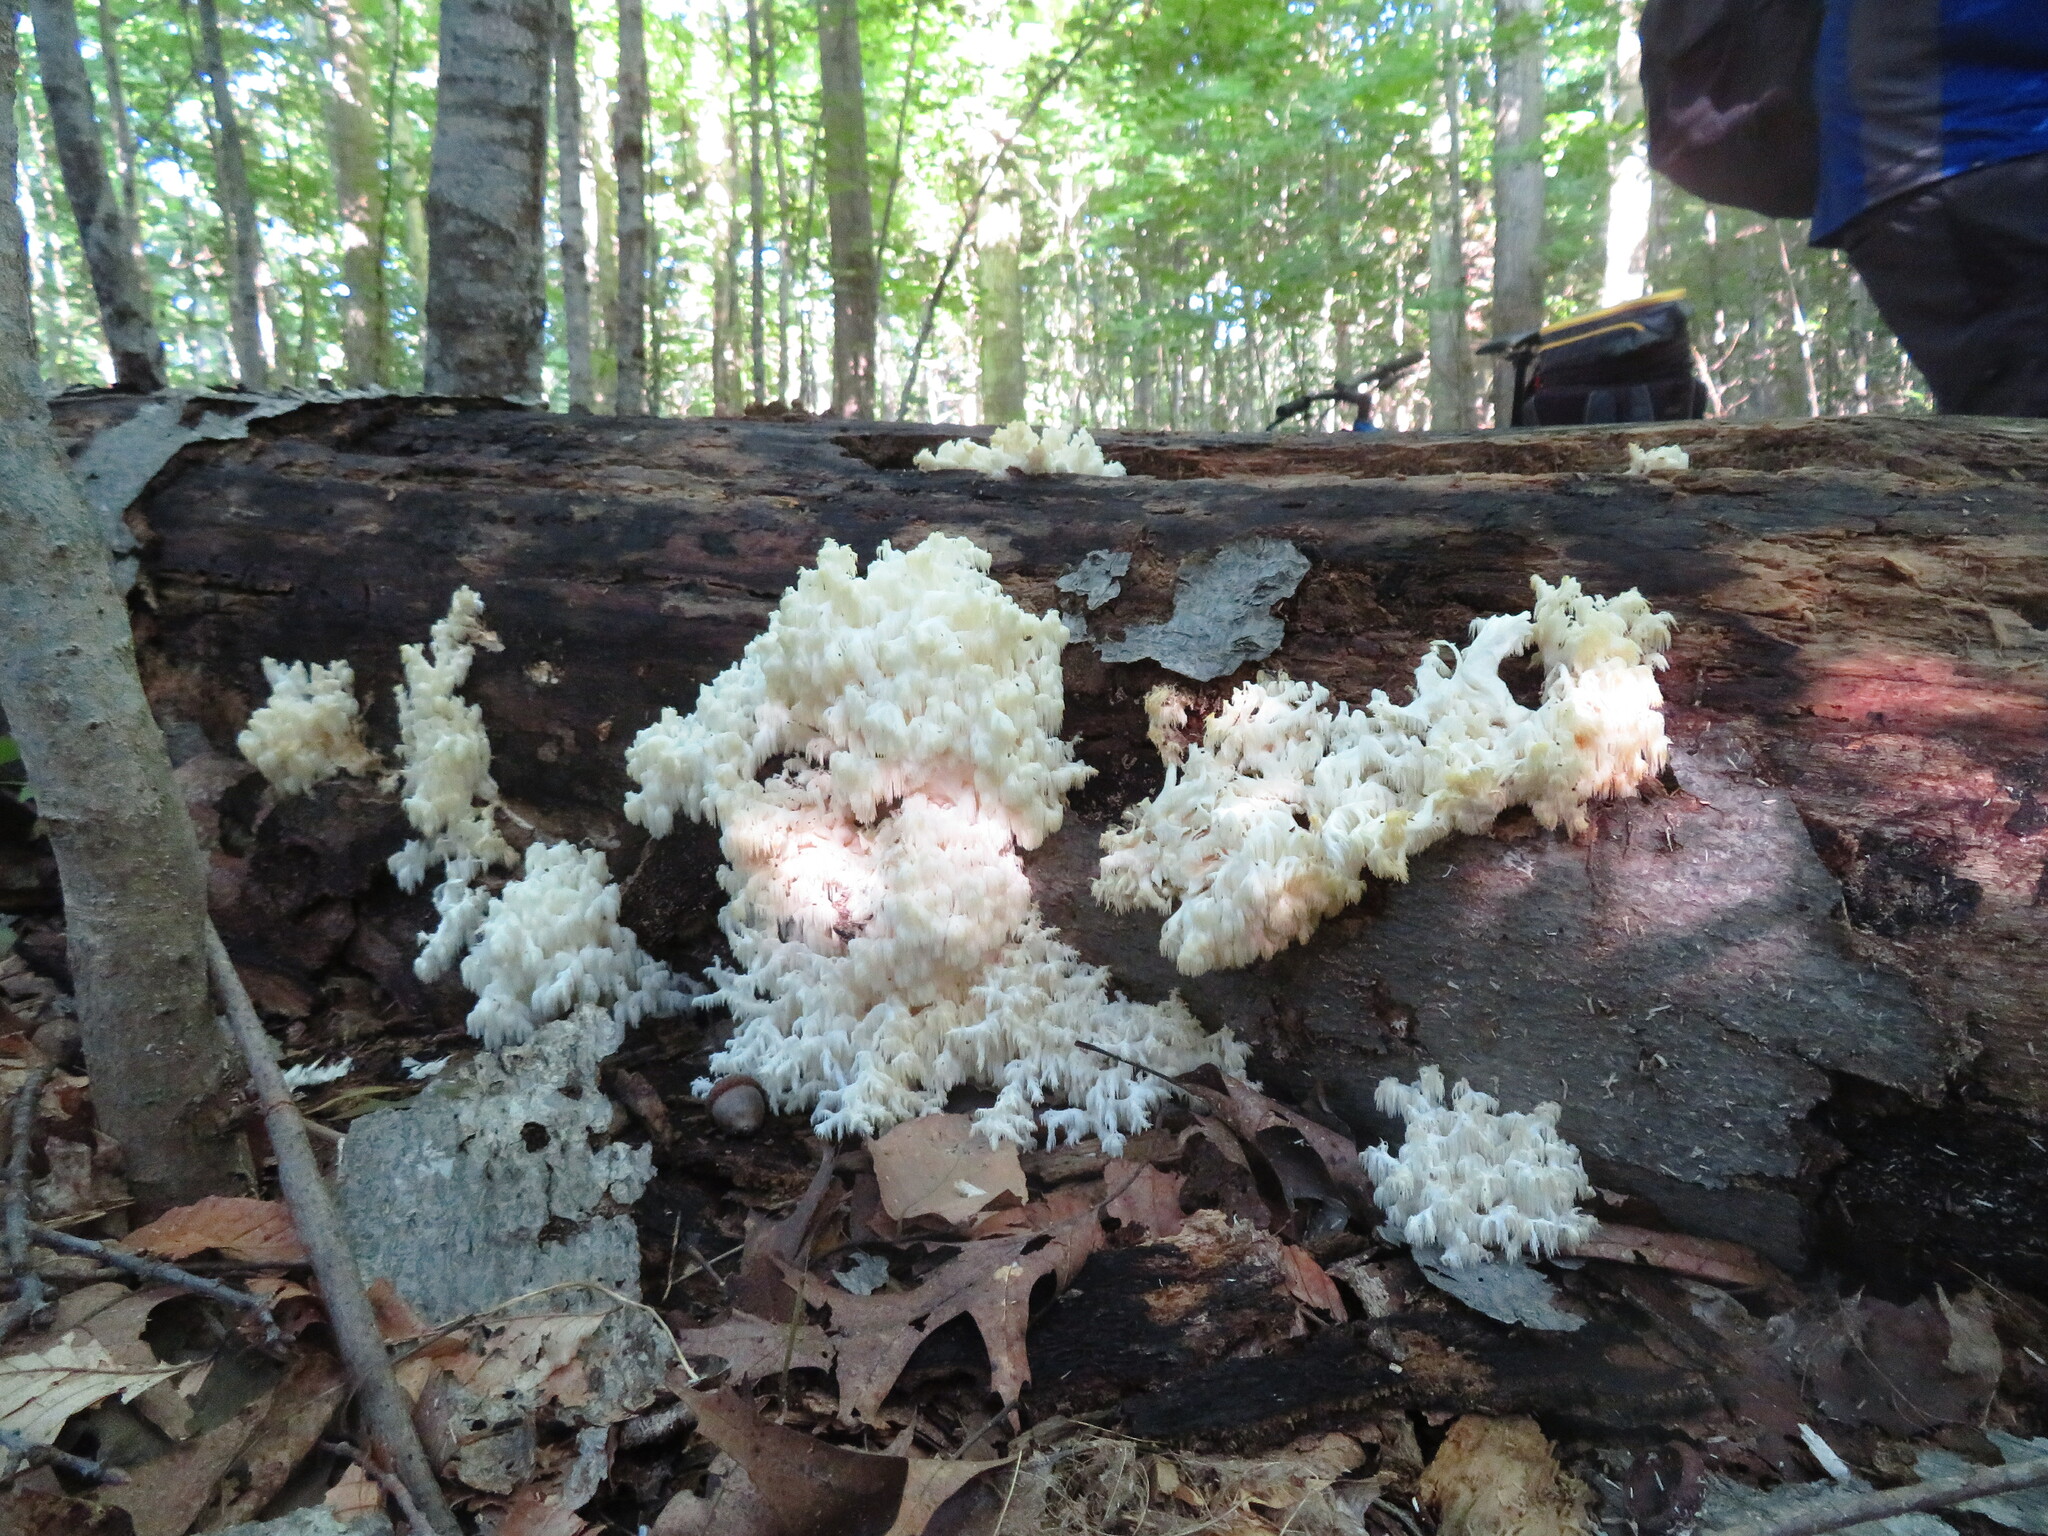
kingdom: Fungi
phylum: Basidiomycota
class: Agaricomycetes
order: Russulales
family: Hericiaceae
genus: Hericium
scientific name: Hericium coralloides
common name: Coral tooth
